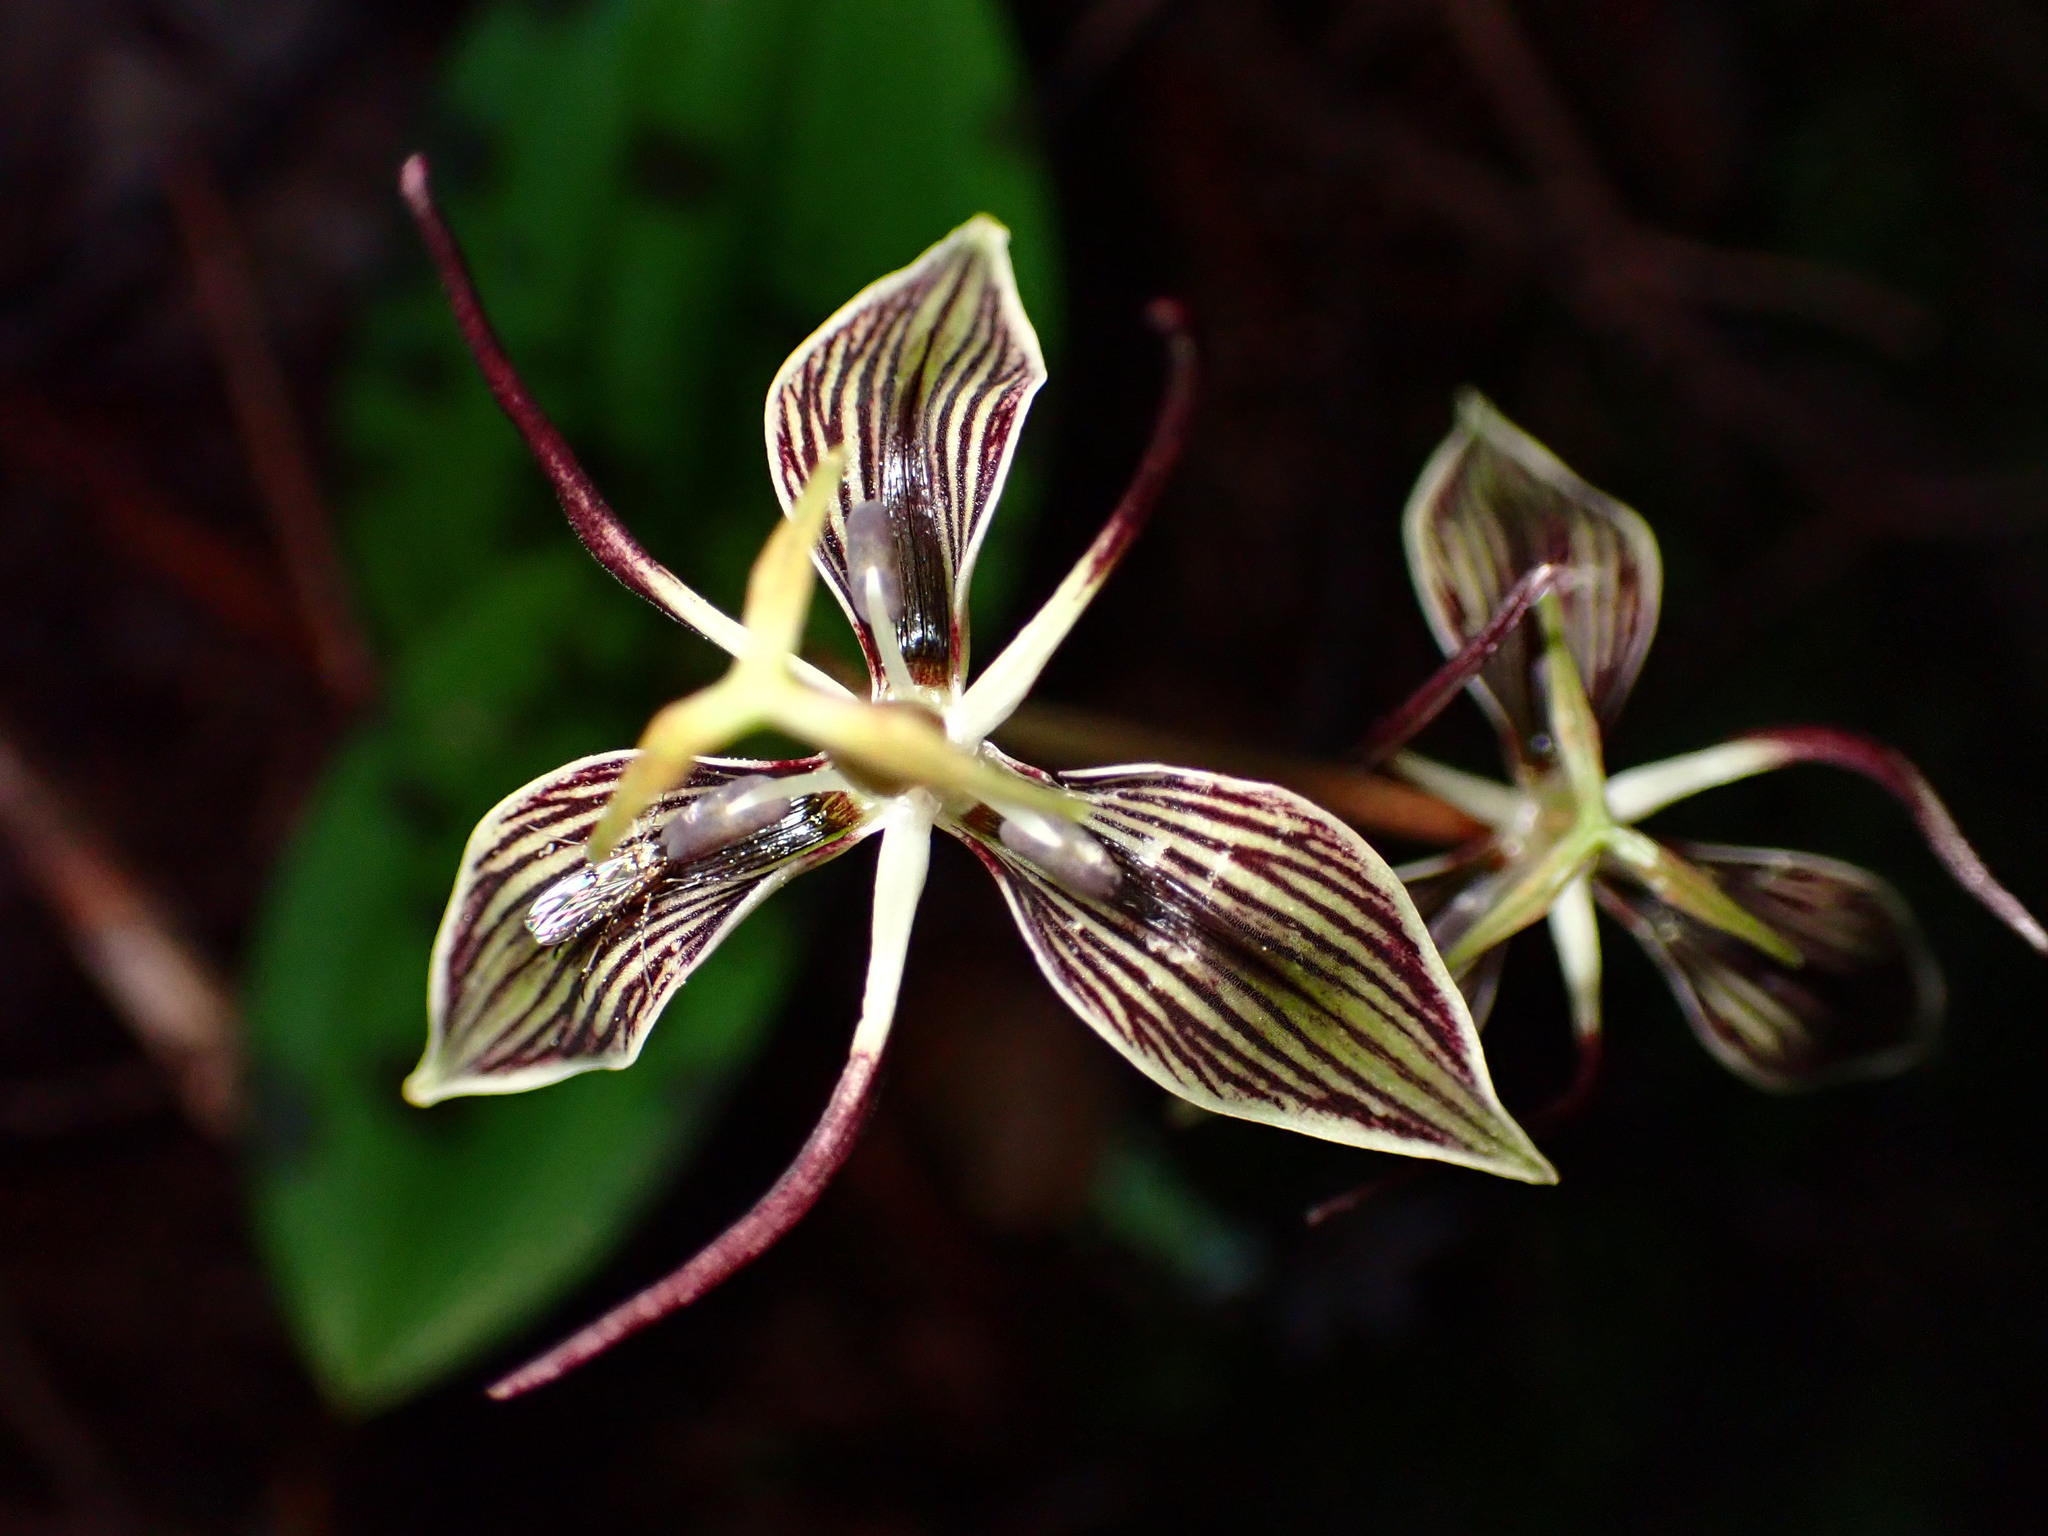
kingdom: Plantae
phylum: Tracheophyta
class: Liliopsida
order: Liliales
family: Liliaceae
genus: Scoliopus
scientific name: Scoliopus bigelovii
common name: Foetid adder's-tongue
